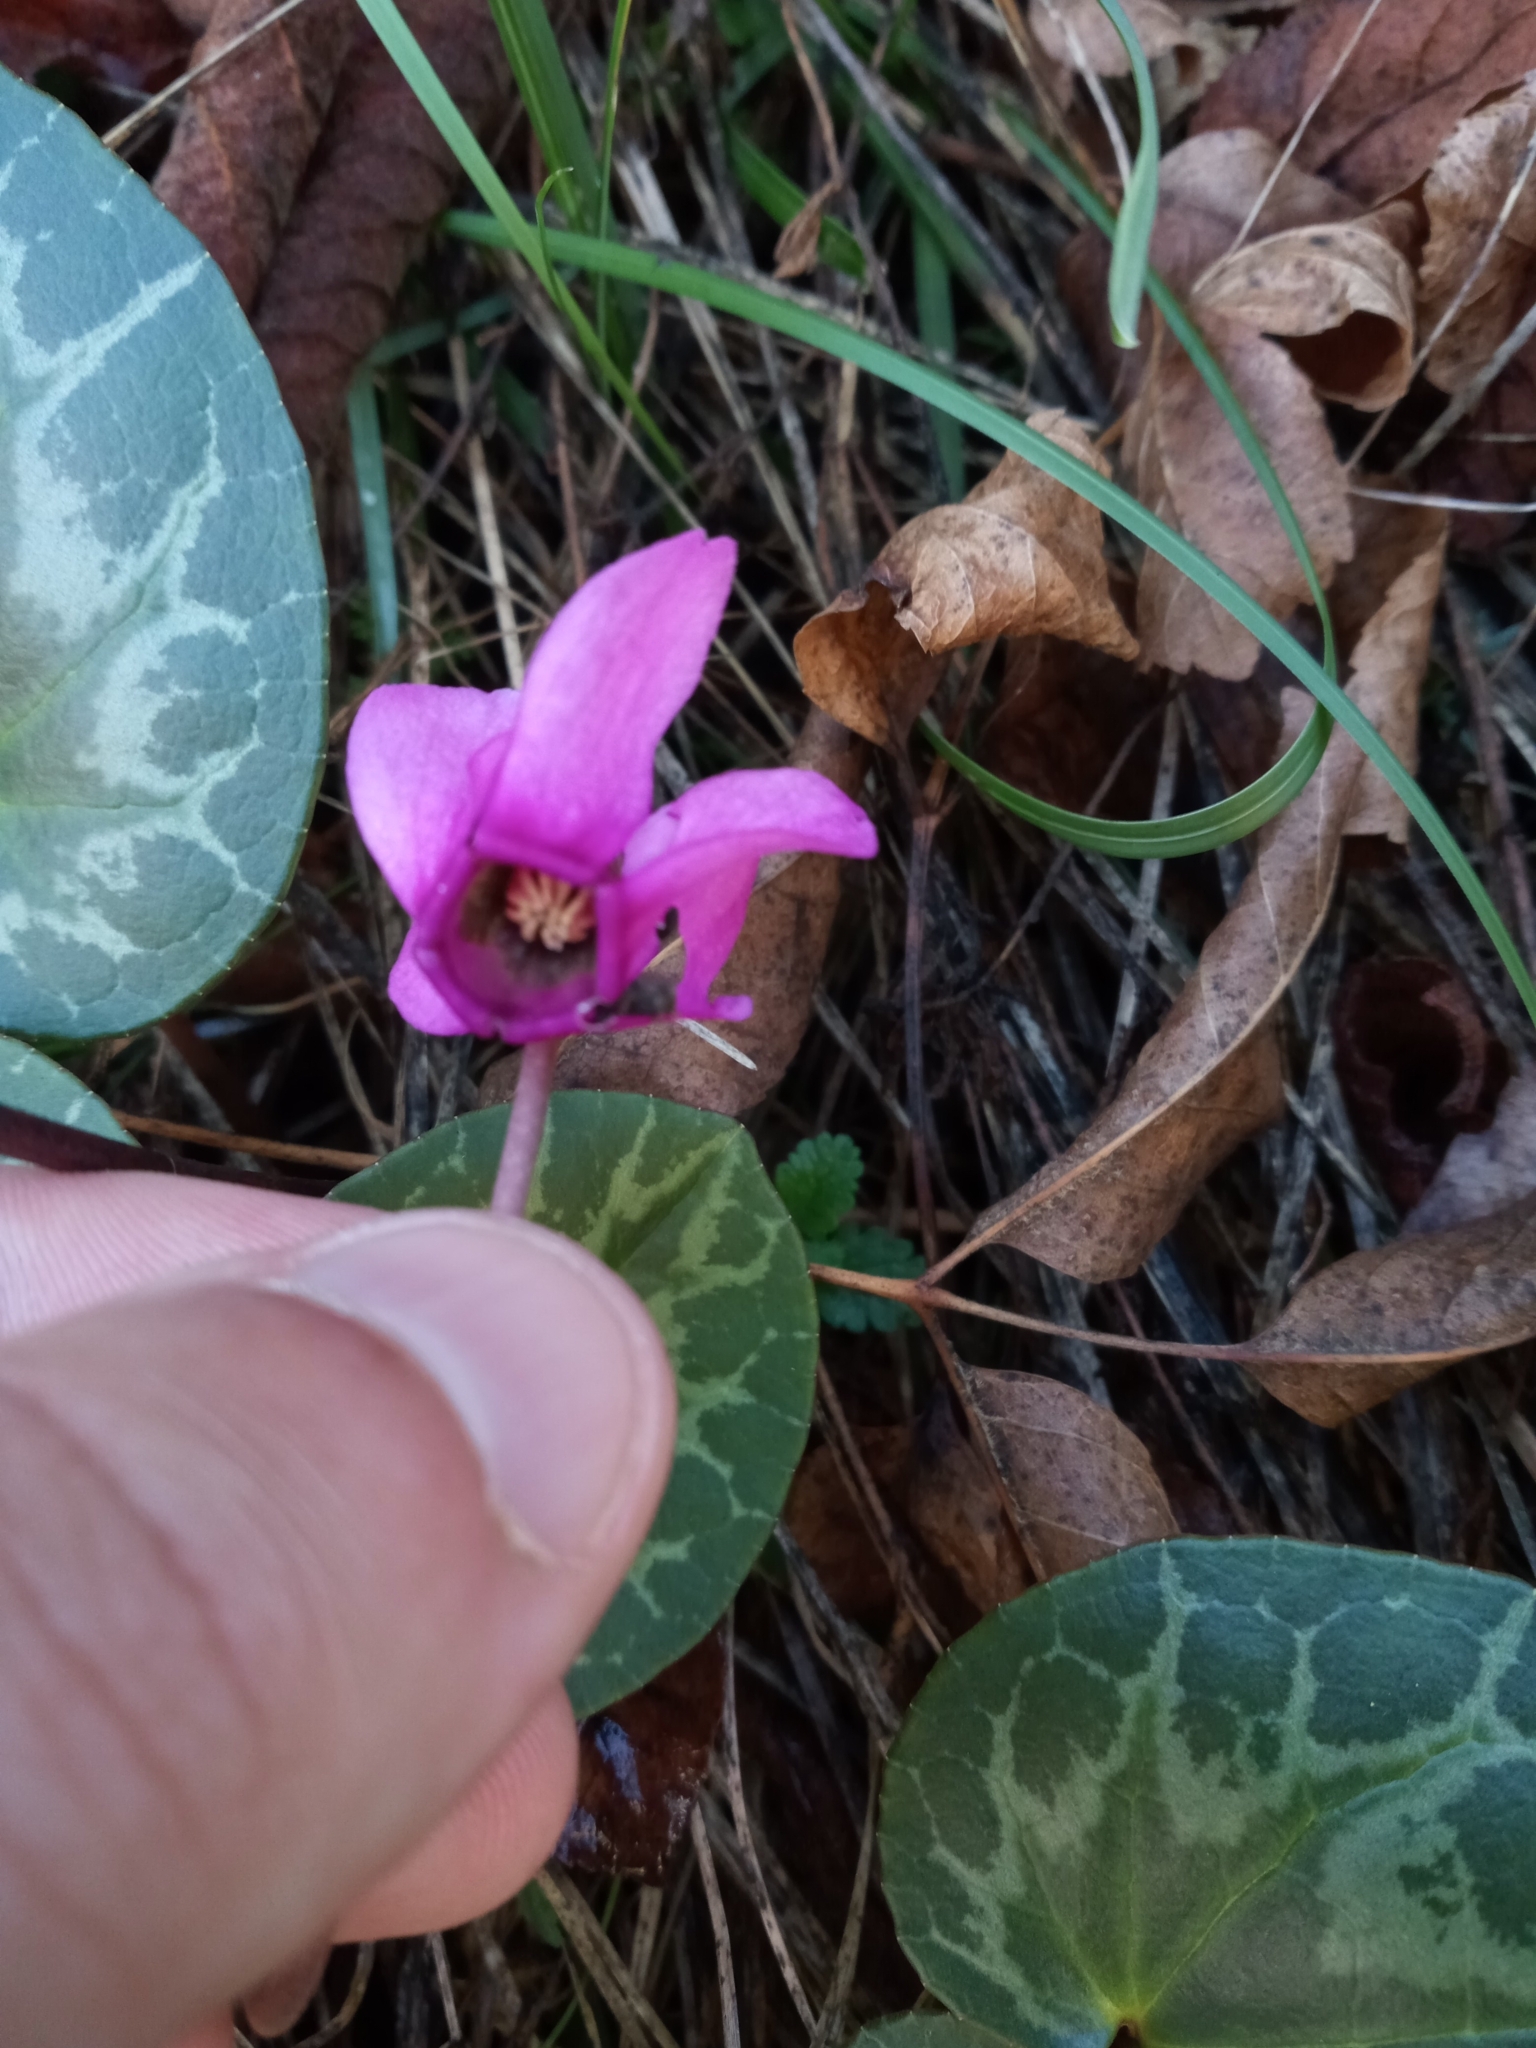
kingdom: Plantae
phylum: Tracheophyta
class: Magnoliopsida
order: Ericales
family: Primulaceae
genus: Cyclamen
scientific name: Cyclamen purpurascens
